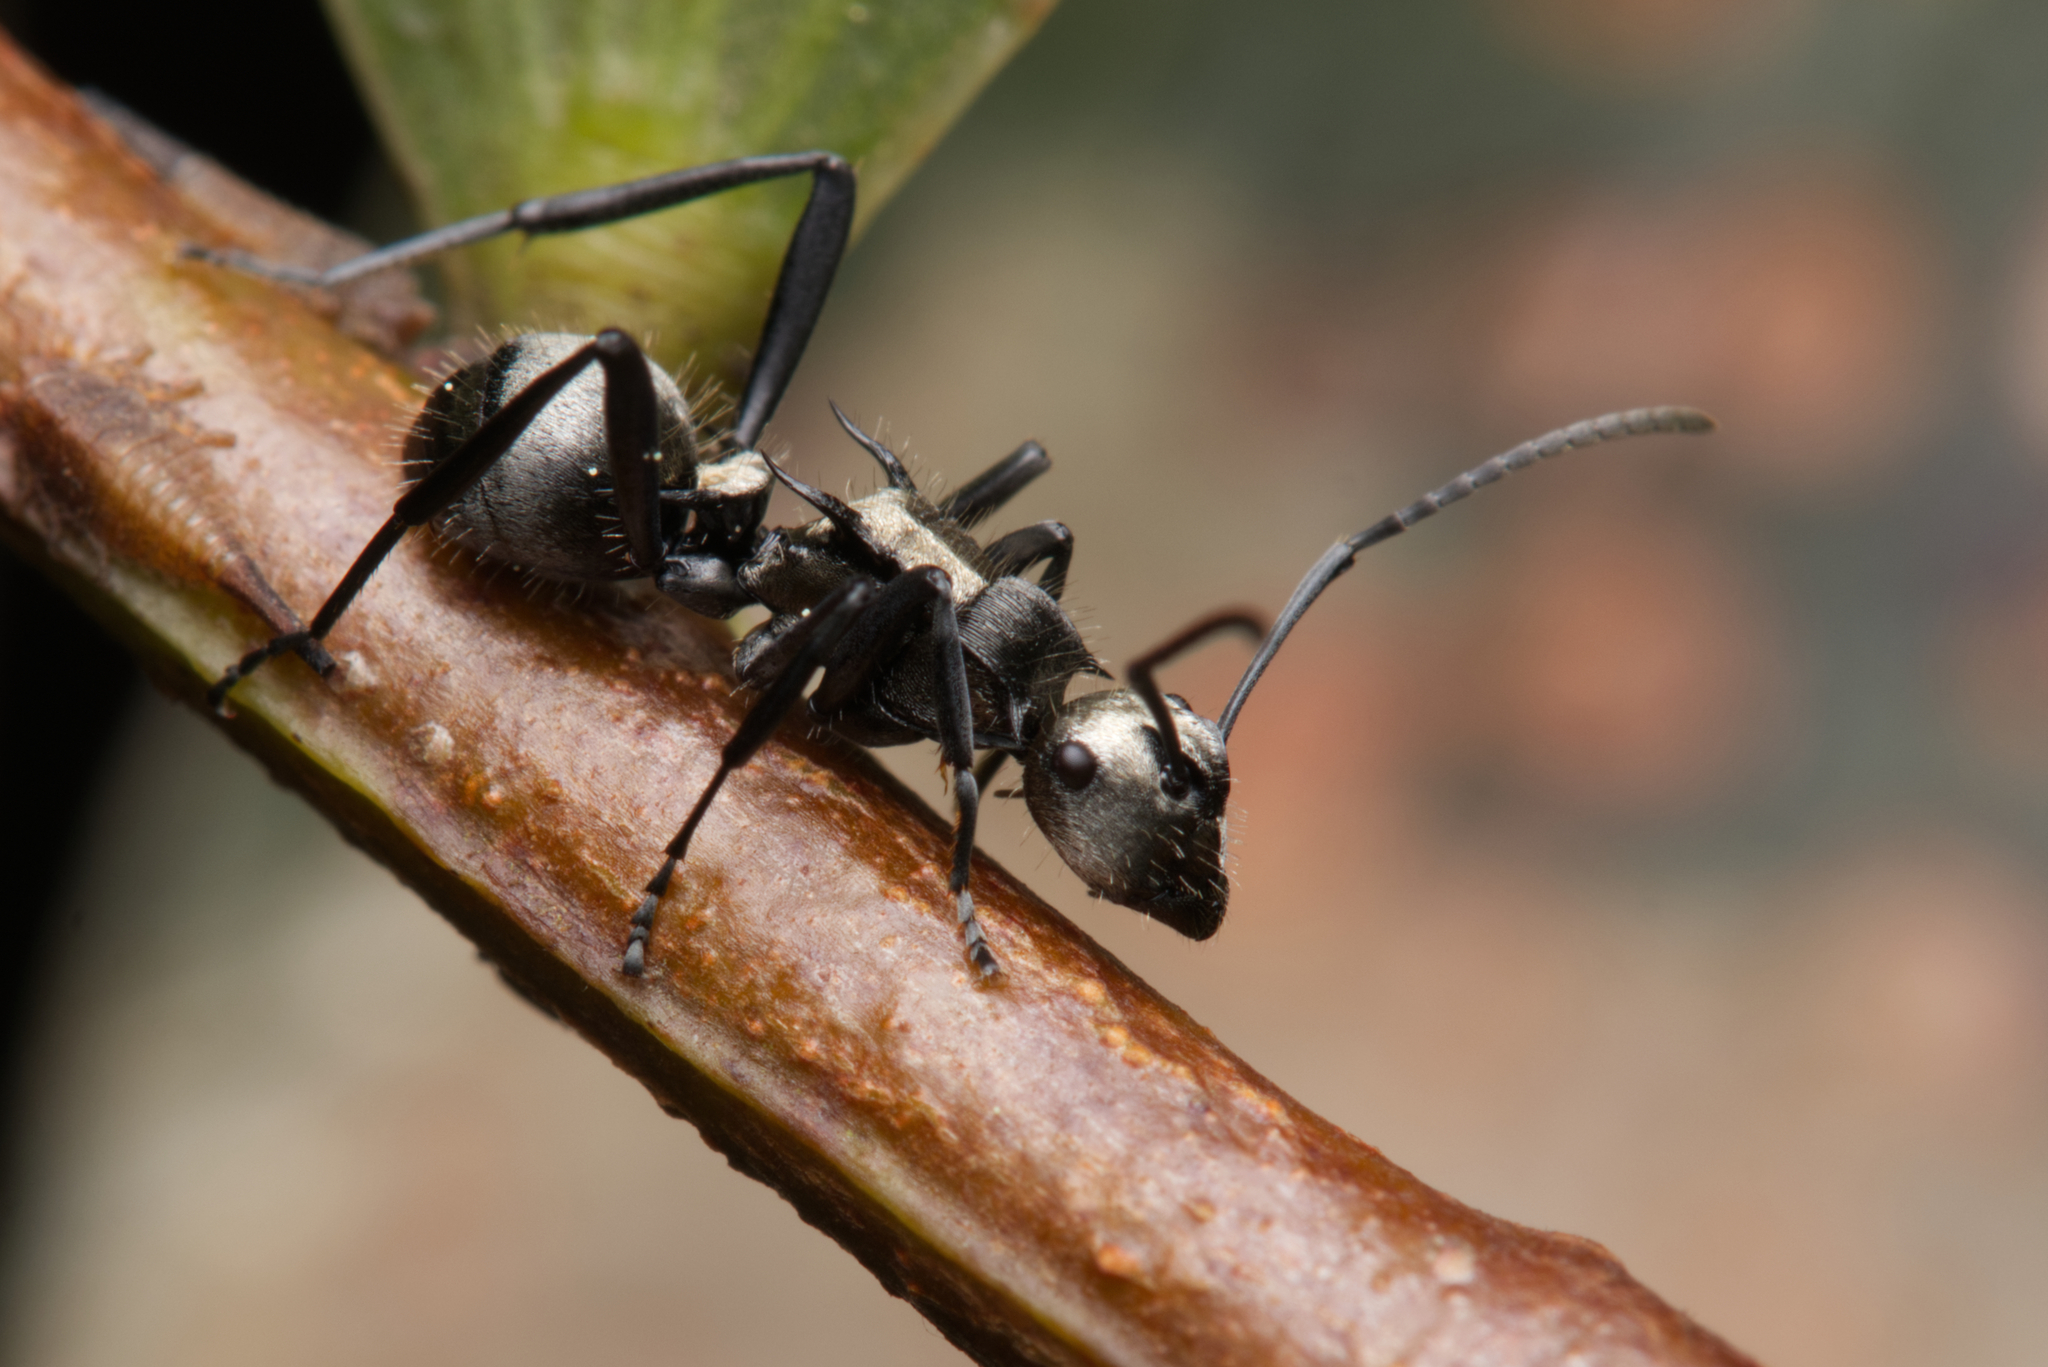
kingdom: Animalia
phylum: Arthropoda
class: Insecta
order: Hymenoptera
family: Formicidae
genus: Polyrhachis
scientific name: Polyrhachis daemeli
